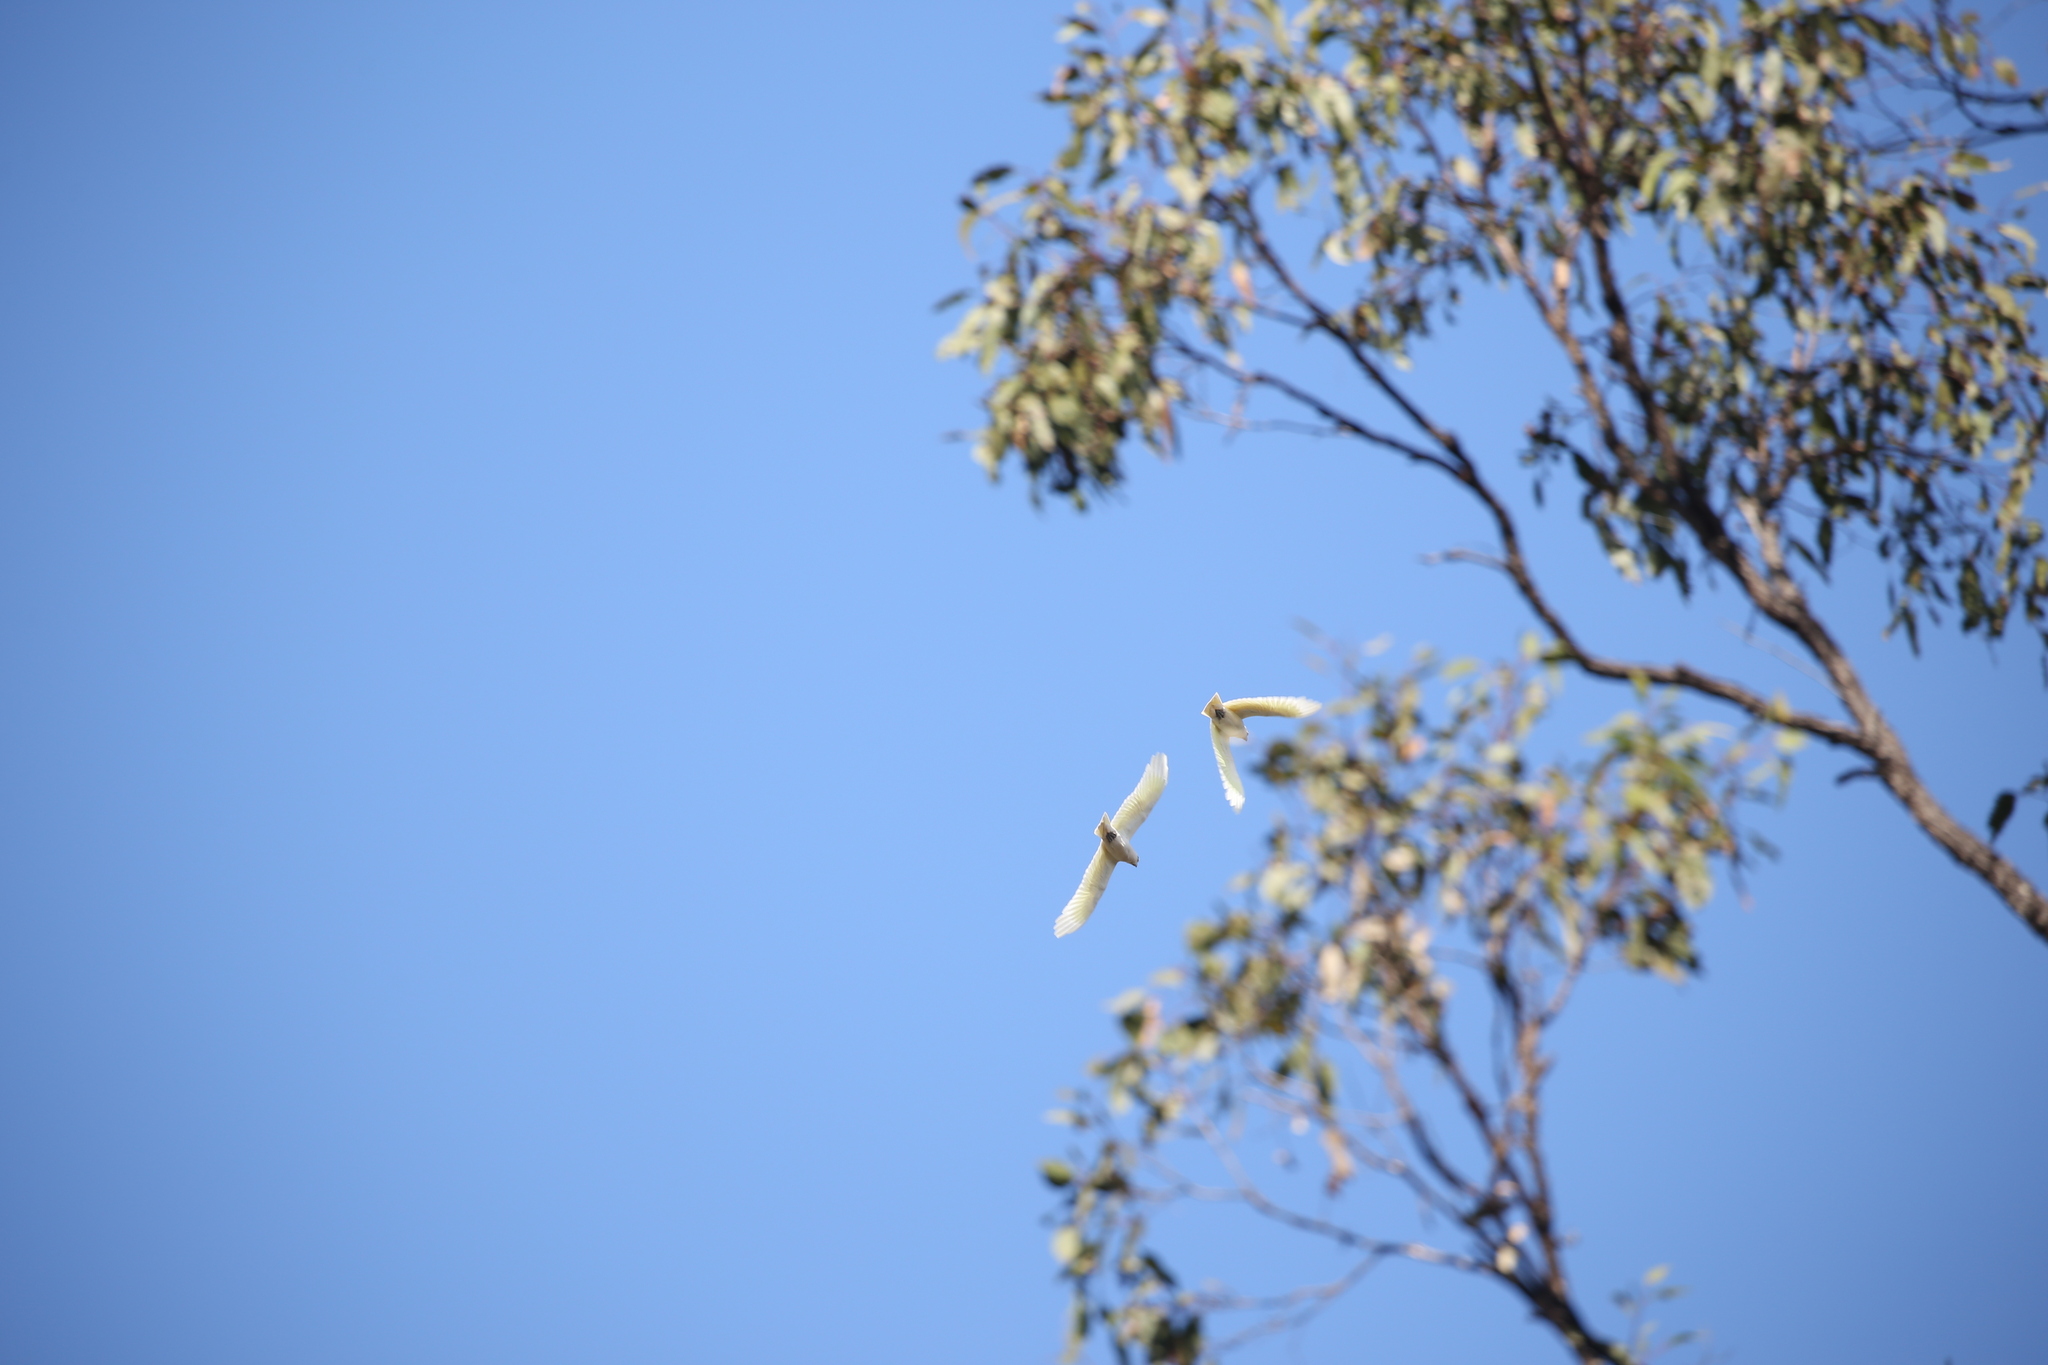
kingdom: Animalia
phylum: Chordata
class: Aves
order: Psittaciformes
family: Psittacidae
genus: Cacatua
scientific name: Cacatua galerita
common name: Sulphur-crested cockatoo
